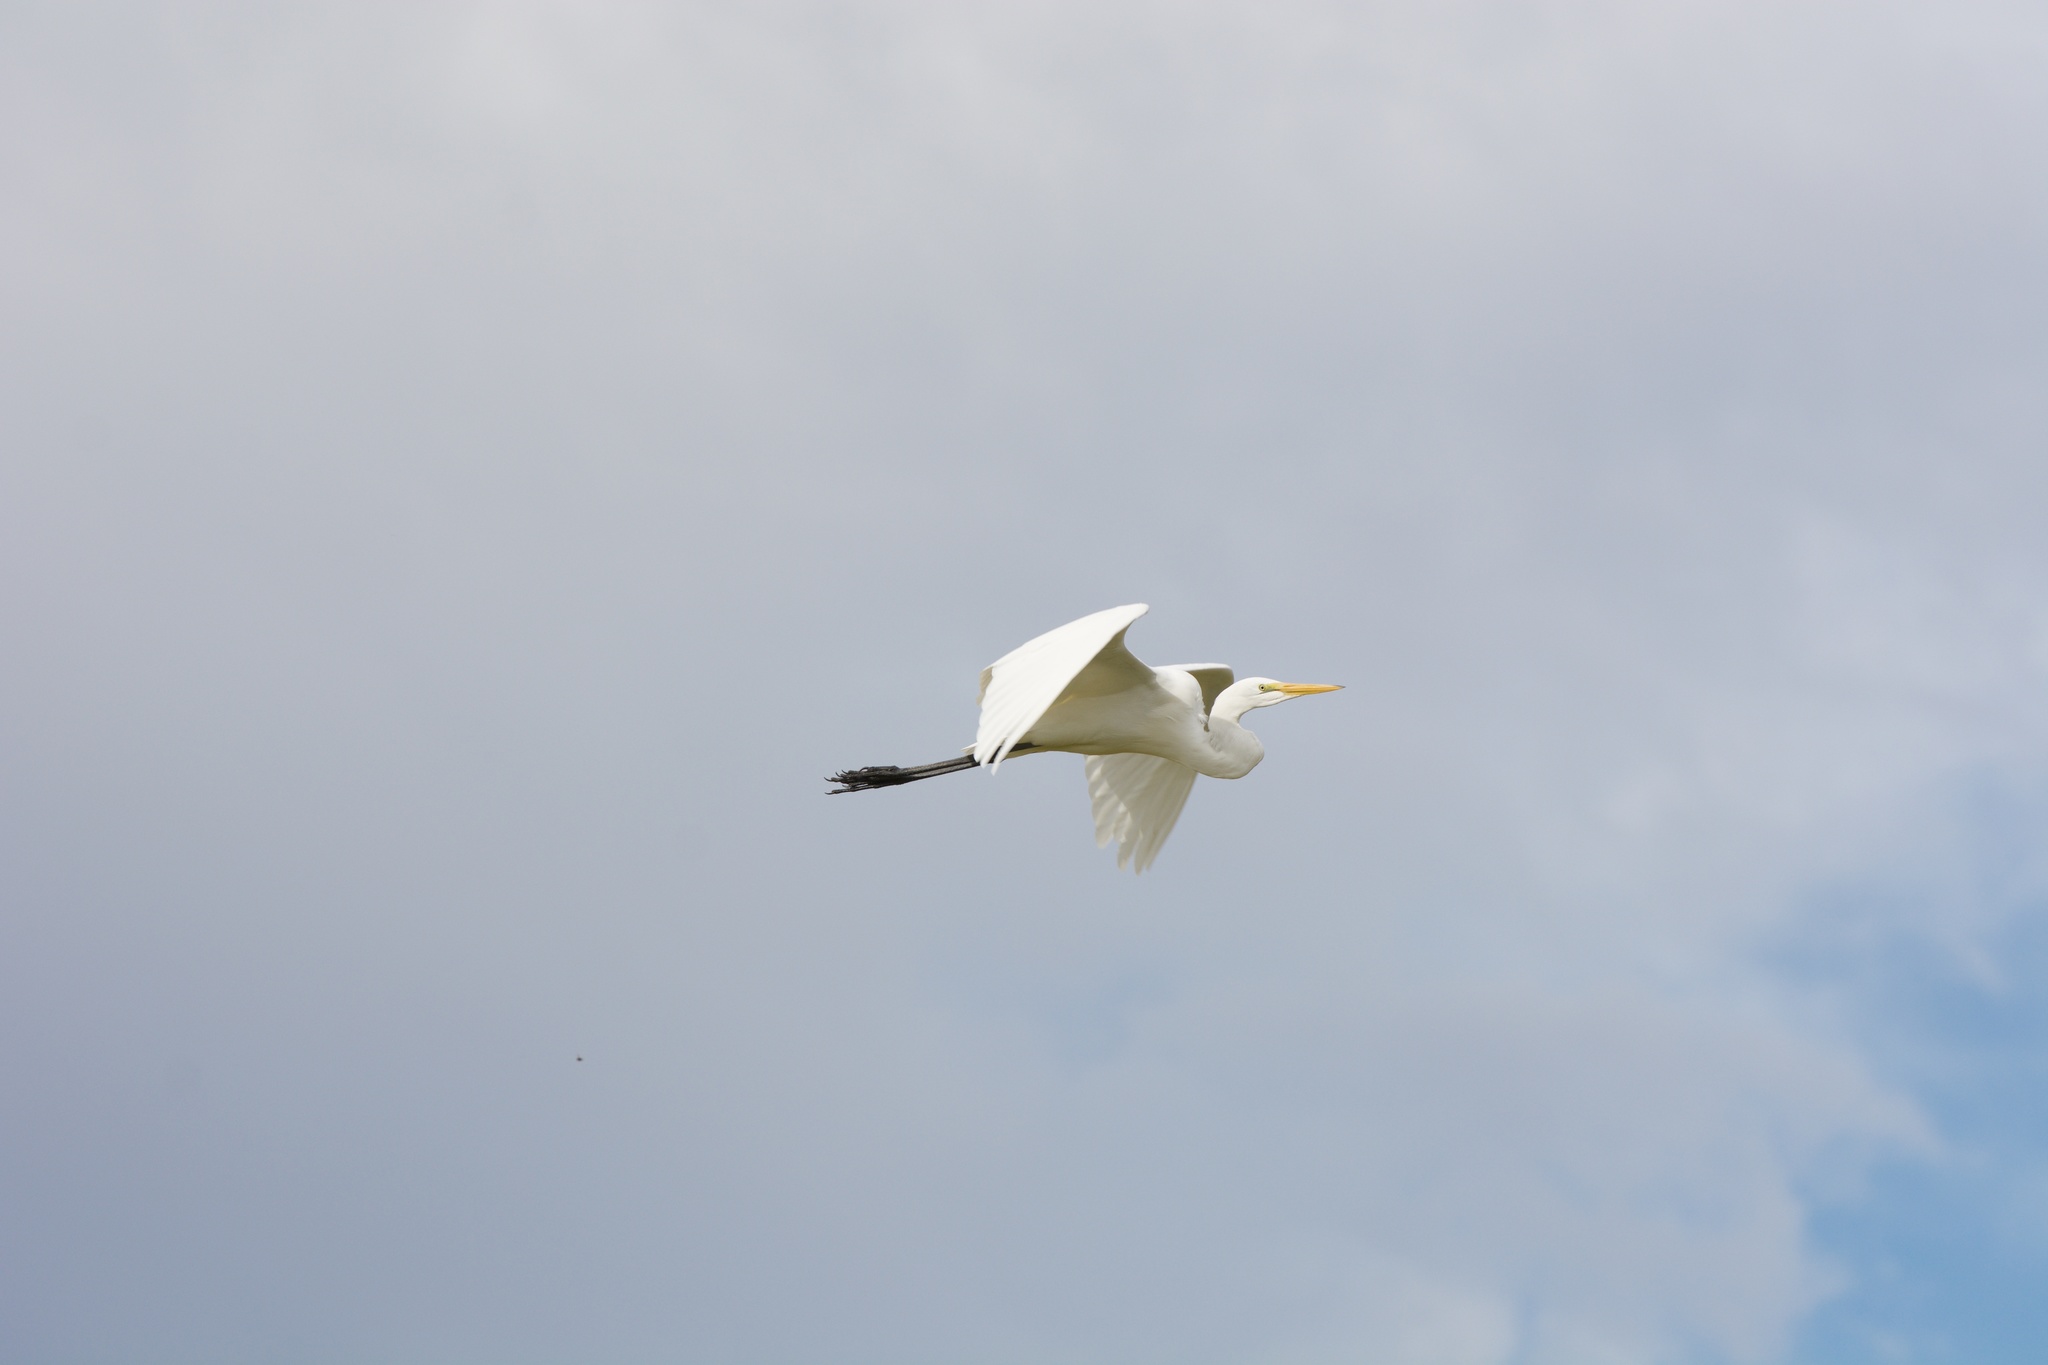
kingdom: Animalia
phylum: Chordata
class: Aves
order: Pelecaniformes
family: Ardeidae
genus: Ardea
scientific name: Ardea alba
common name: Great egret
